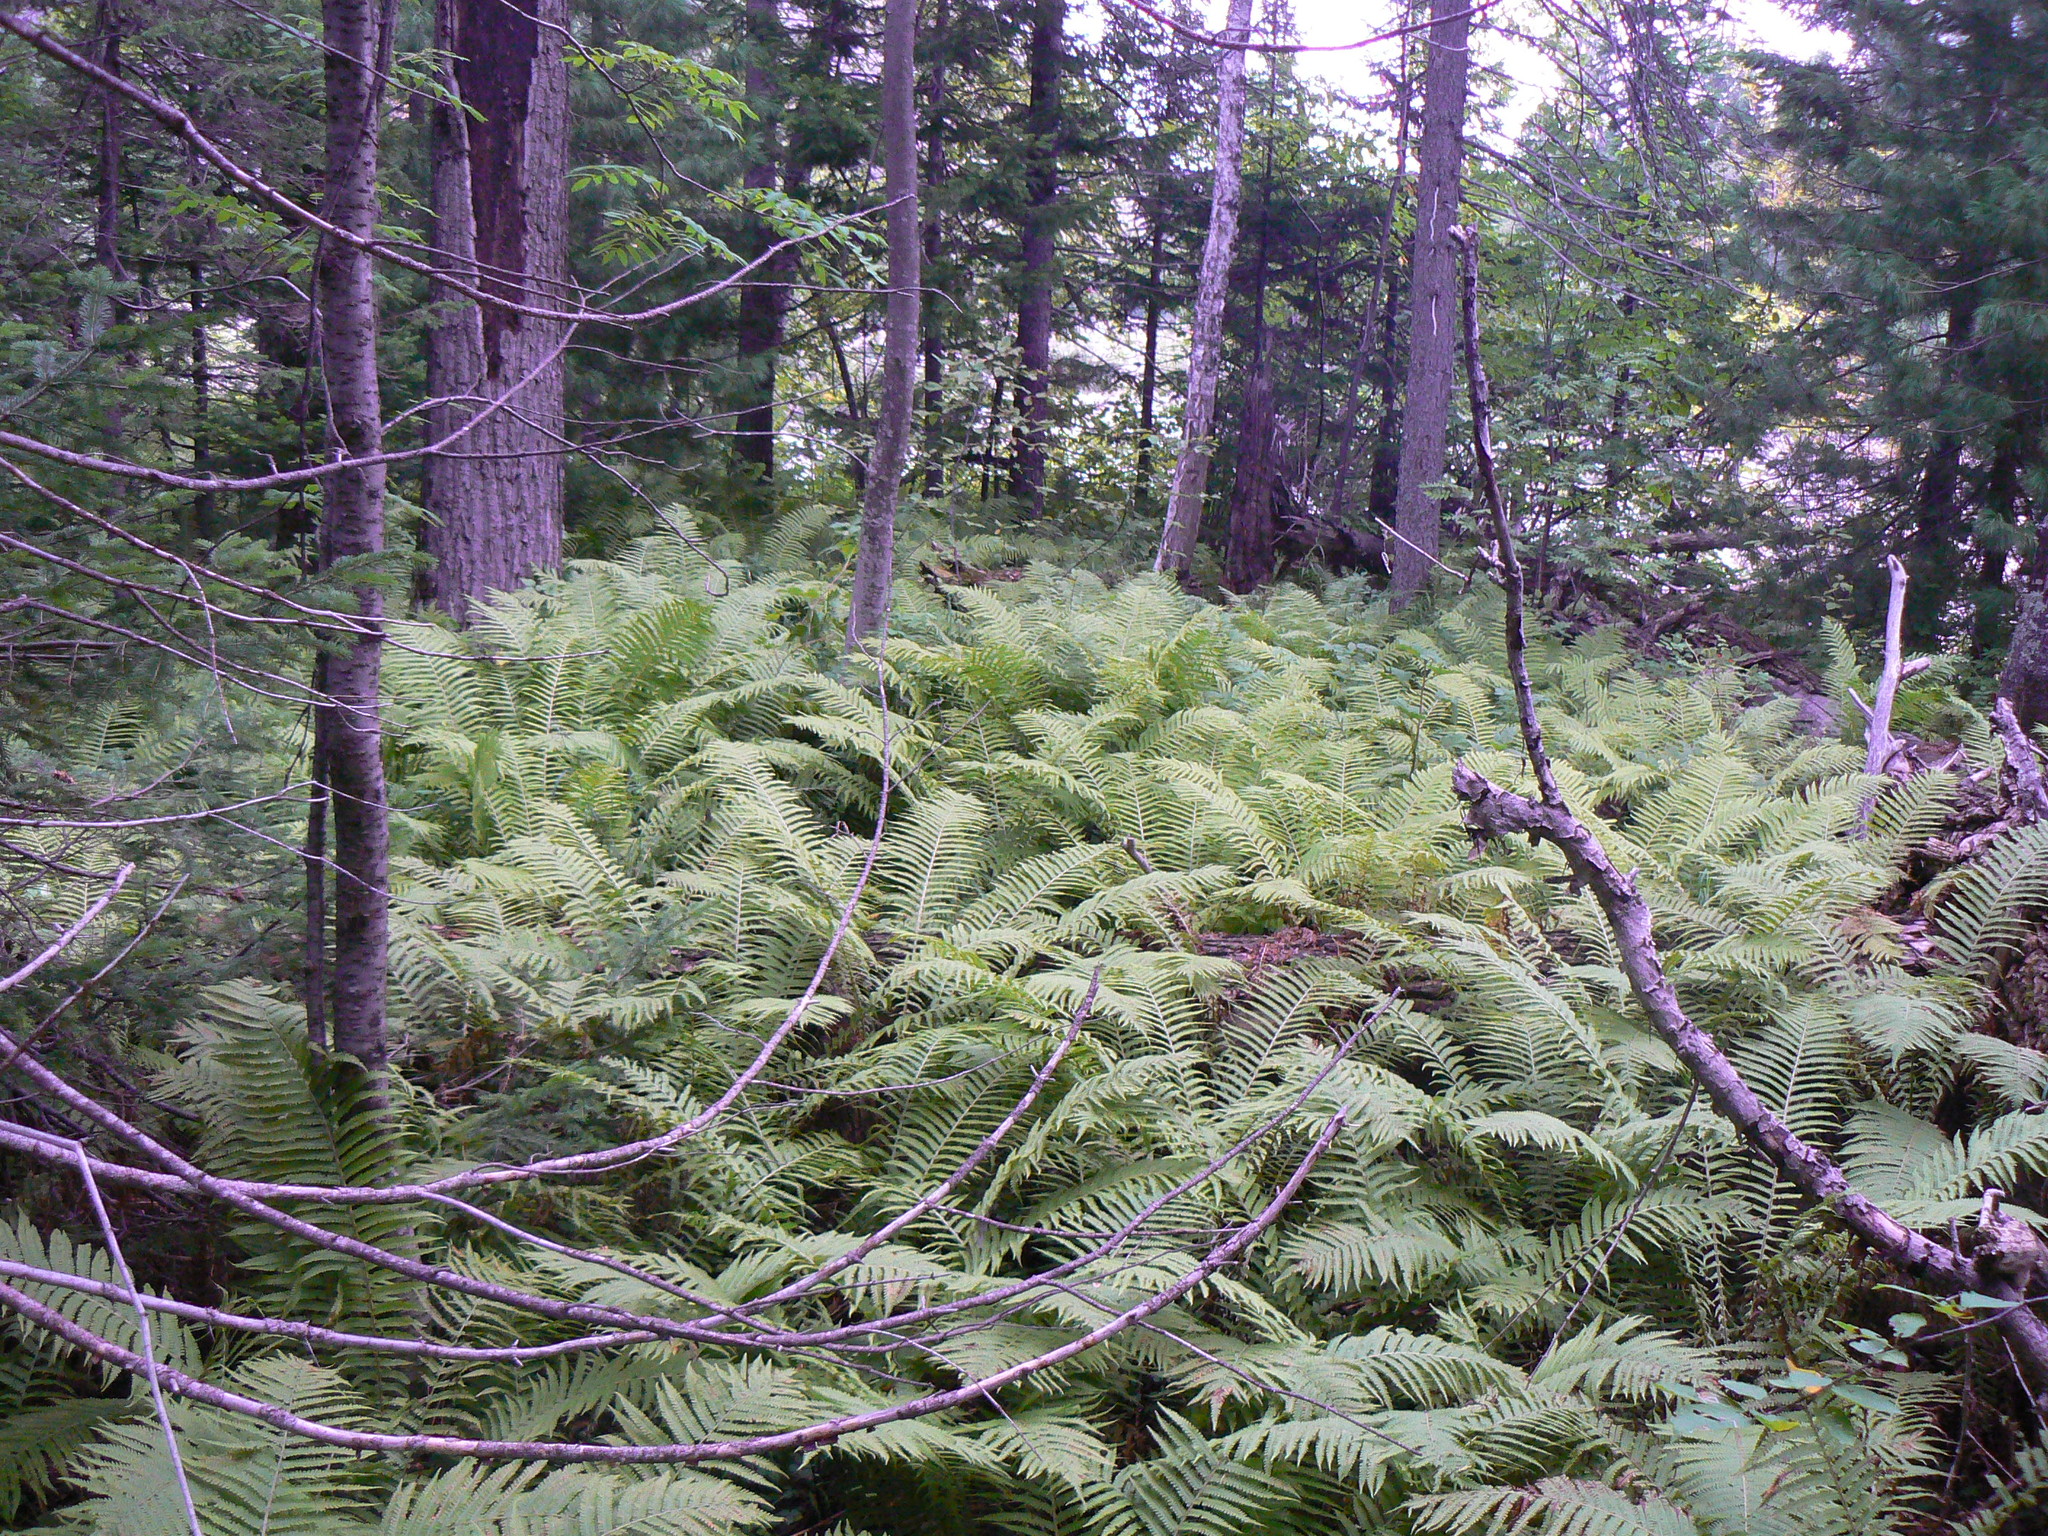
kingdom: Plantae
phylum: Tracheophyta
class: Polypodiopsida
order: Polypodiales
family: Onocleaceae
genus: Matteuccia
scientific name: Matteuccia struthiopteris
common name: Ostrich fern
